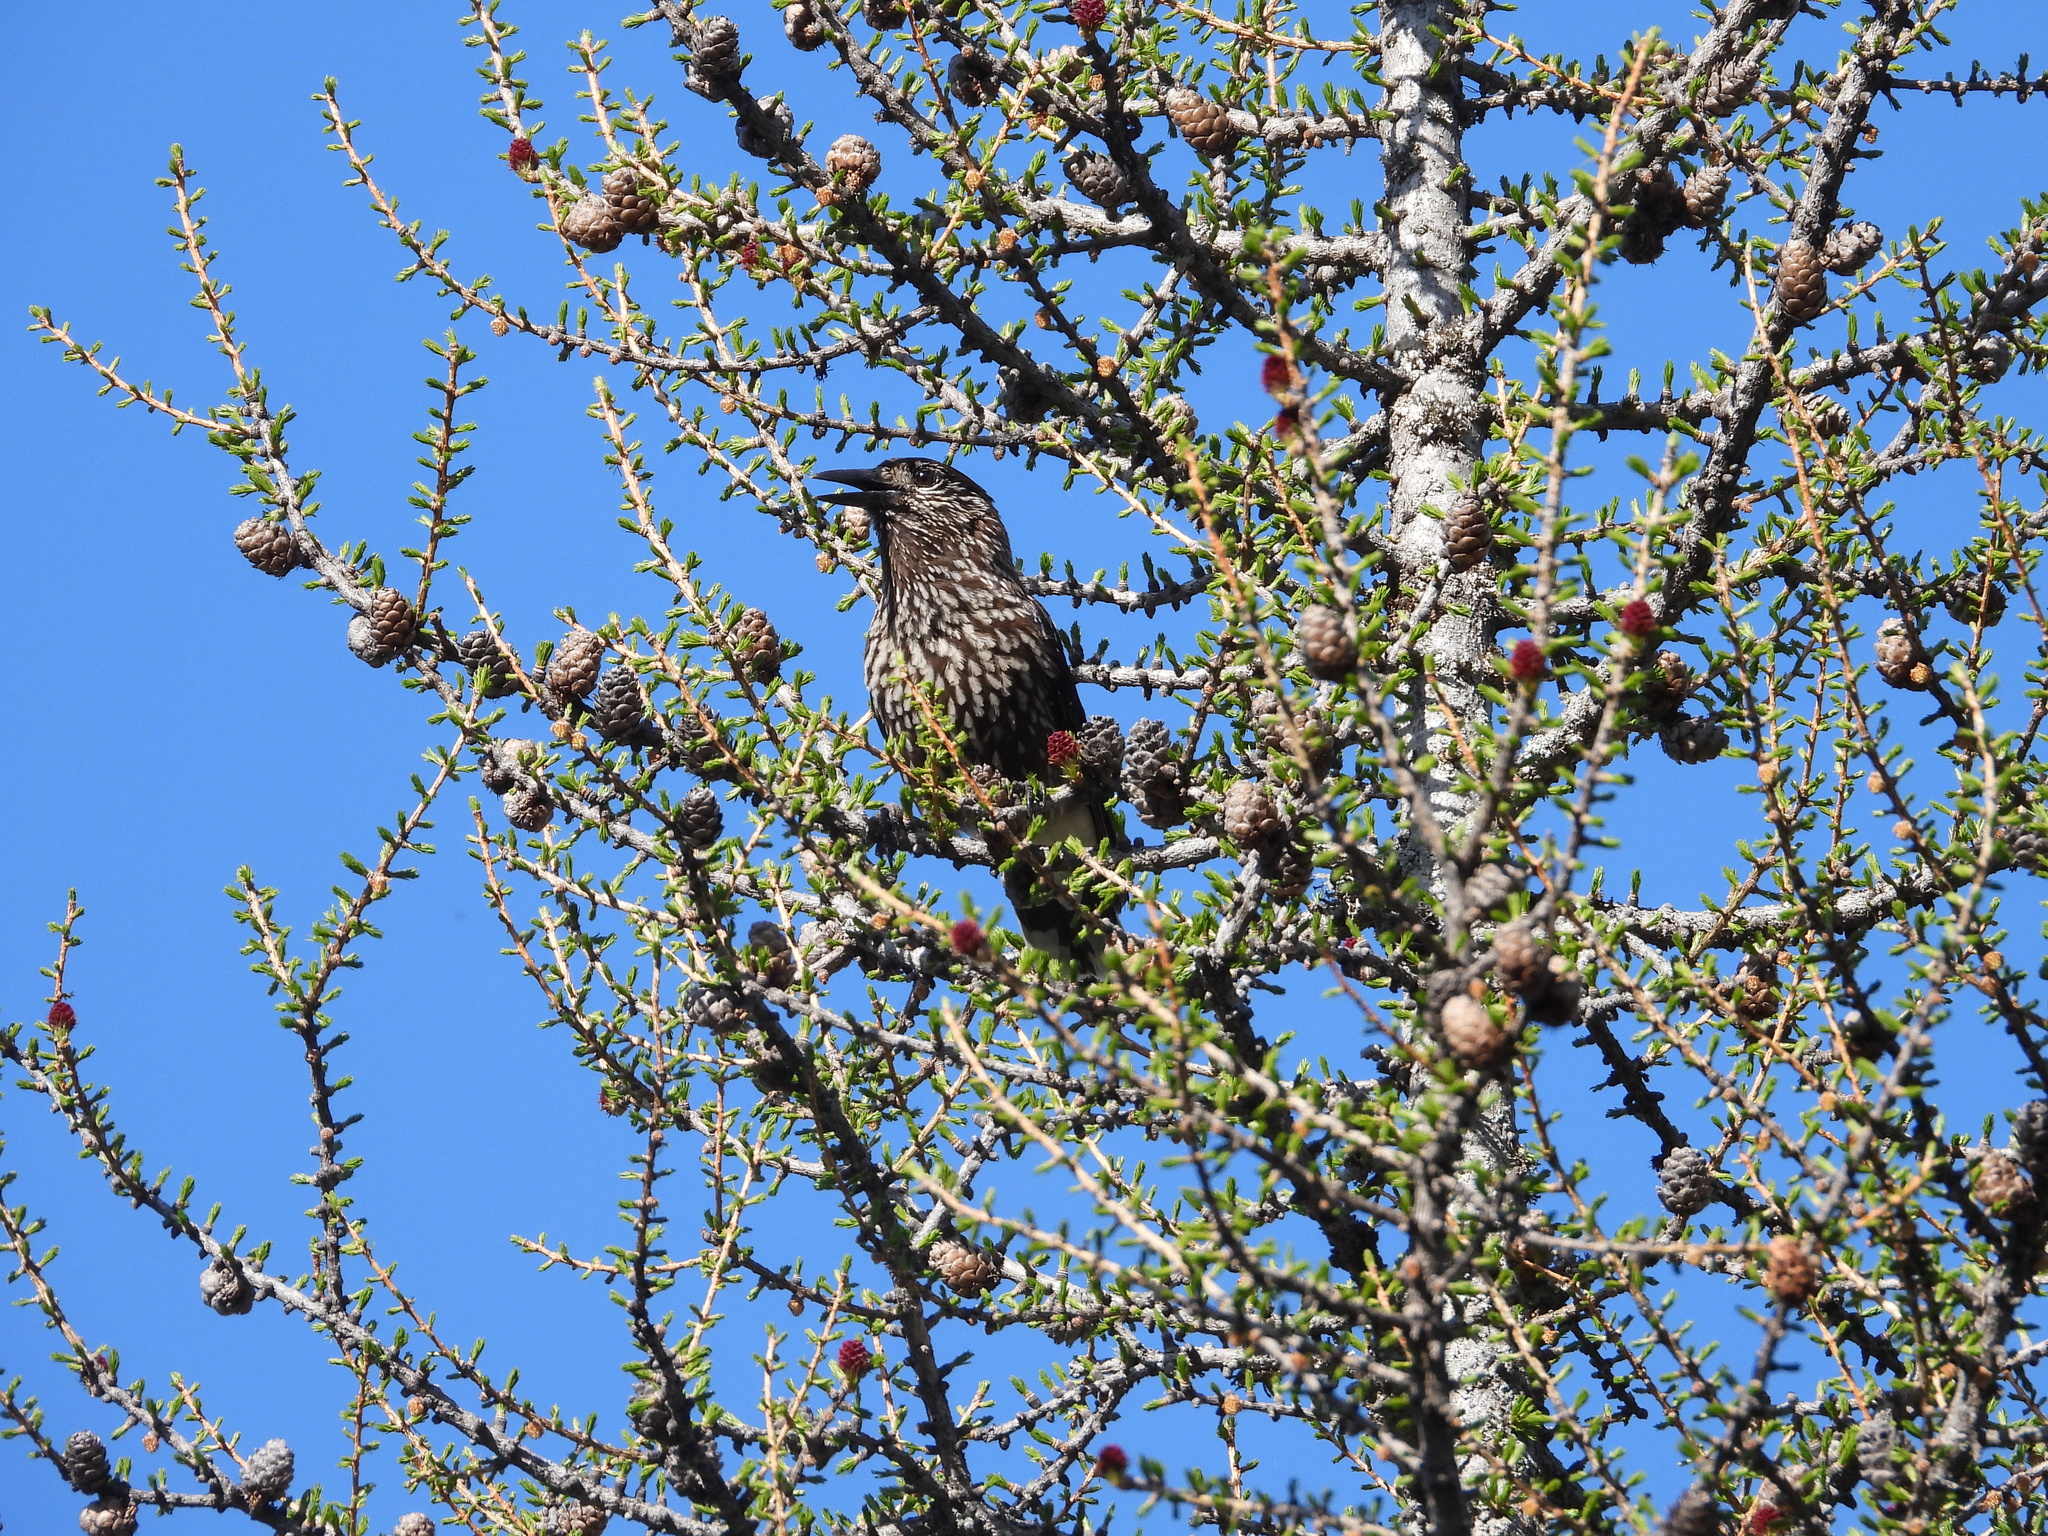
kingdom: Animalia
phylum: Chordata
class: Aves
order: Passeriformes
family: Corvidae
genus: Nucifraga
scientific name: Nucifraga caryocatactes
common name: Spotted nutcracker
